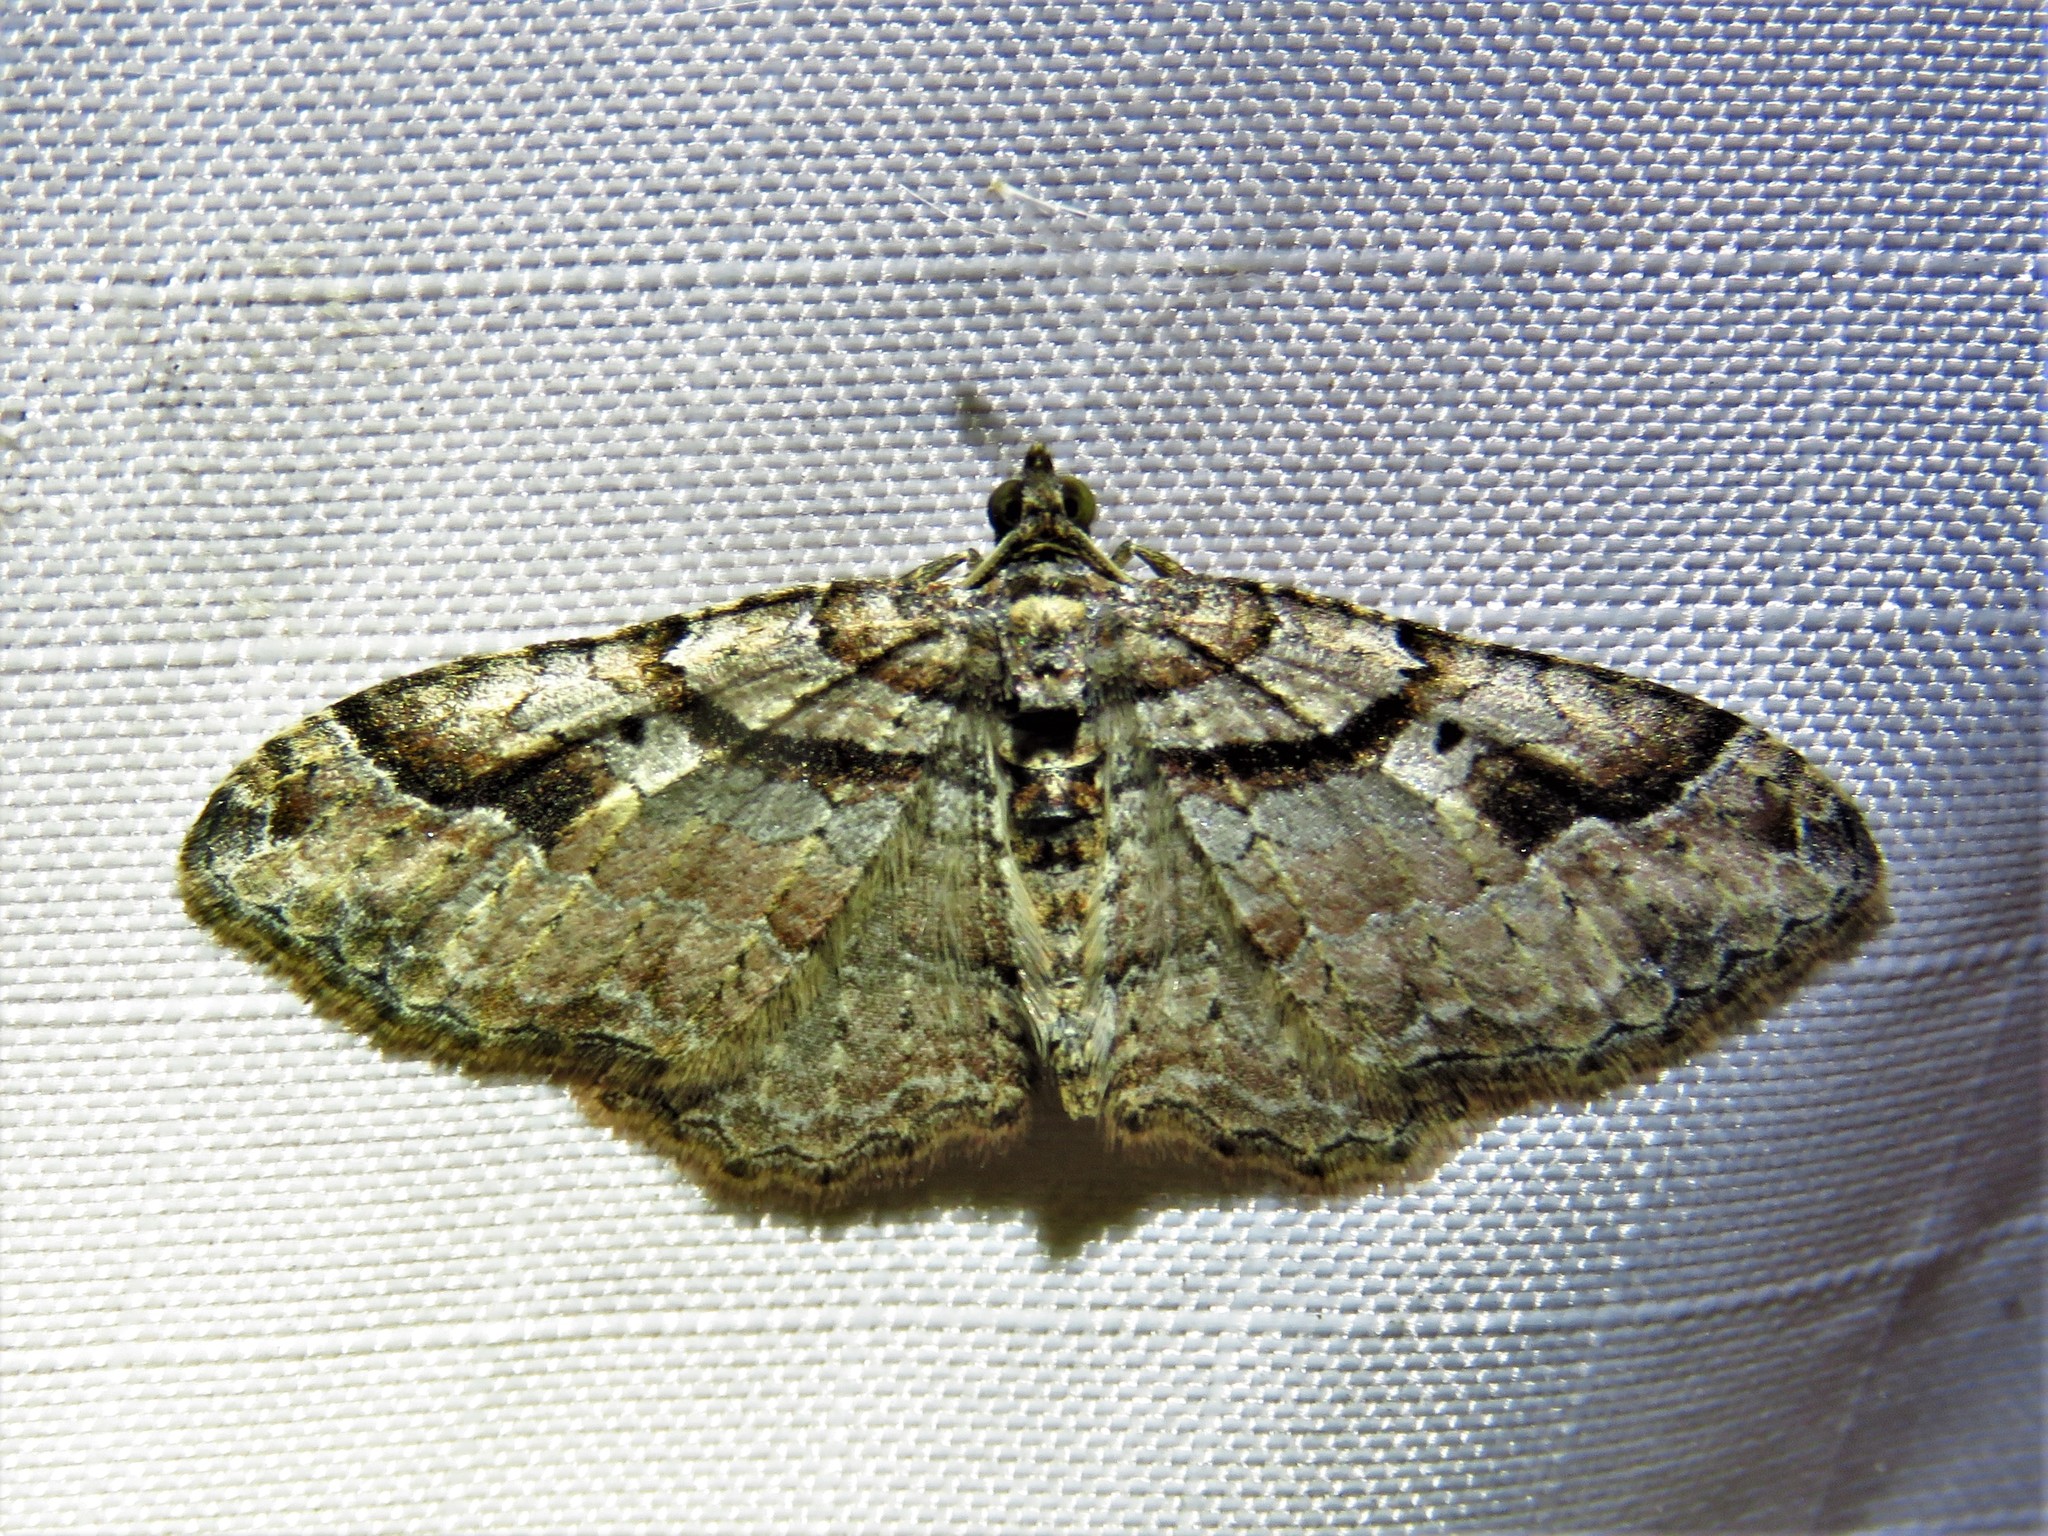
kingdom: Animalia
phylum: Arthropoda
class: Insecta
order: Lepidoptera
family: Geometridae
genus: Costaconvexa
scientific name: Costaconvexa centrostrigaria
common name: Bent-line carpet
